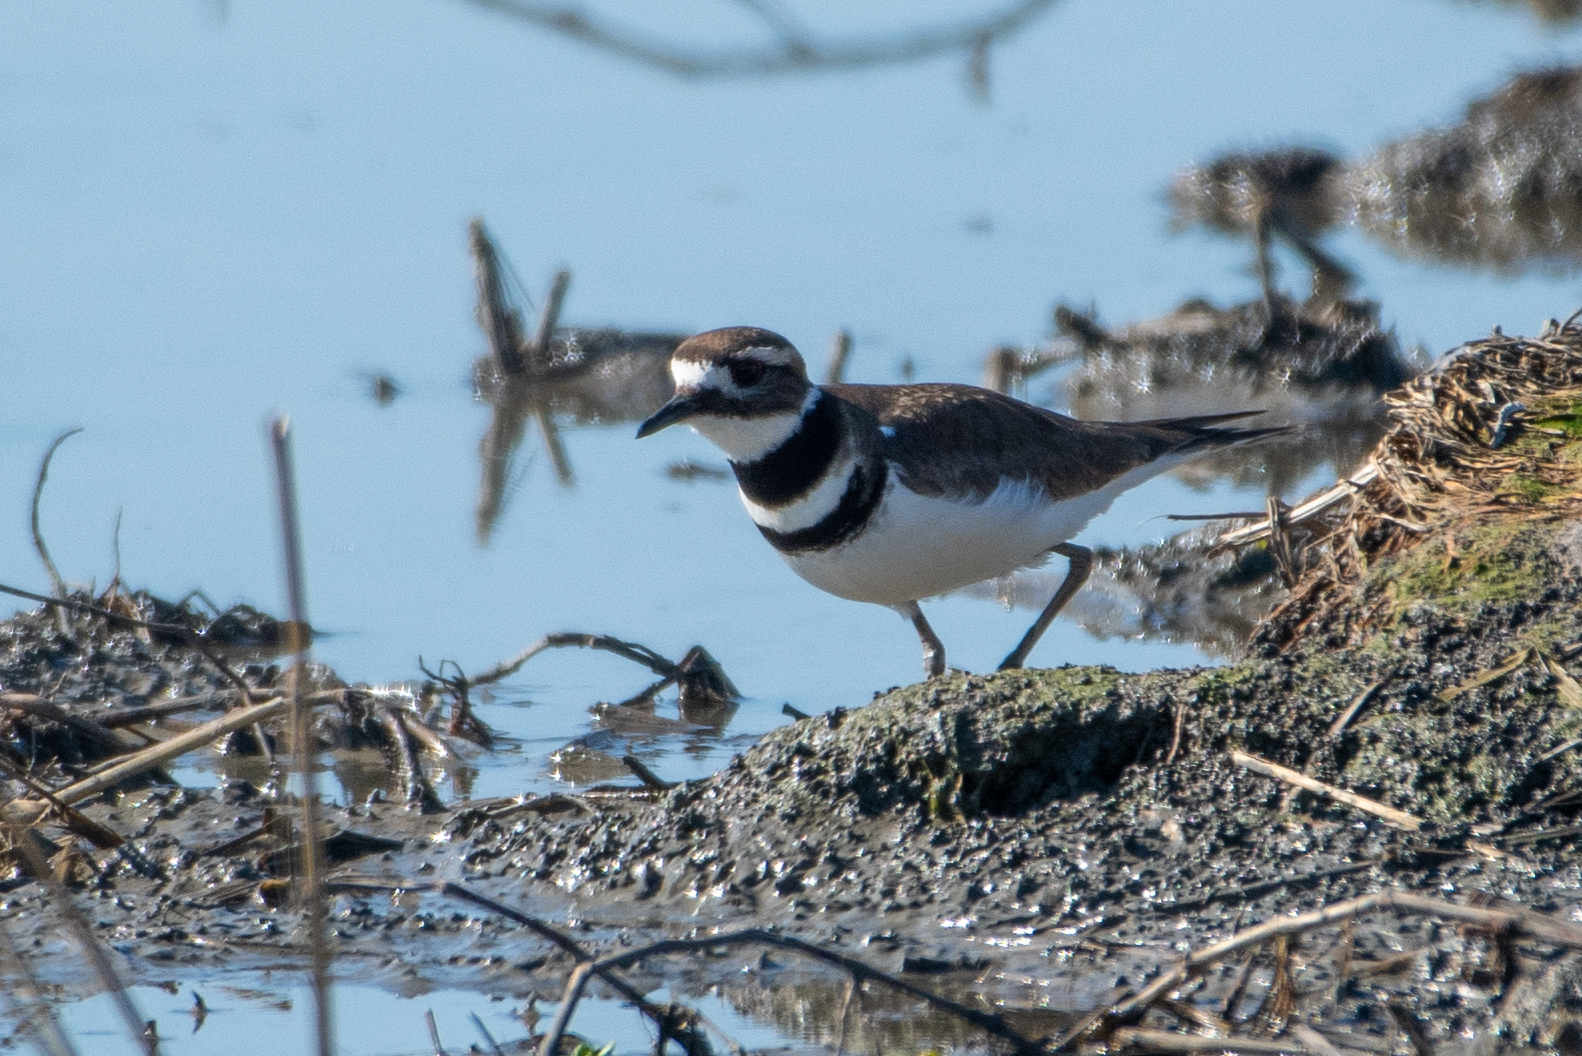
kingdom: Animalia
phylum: Chordata
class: Aves
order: Charadriiformes
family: Charadriidae
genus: Charadrius
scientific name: Charadrius vociferus
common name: Killdeer
